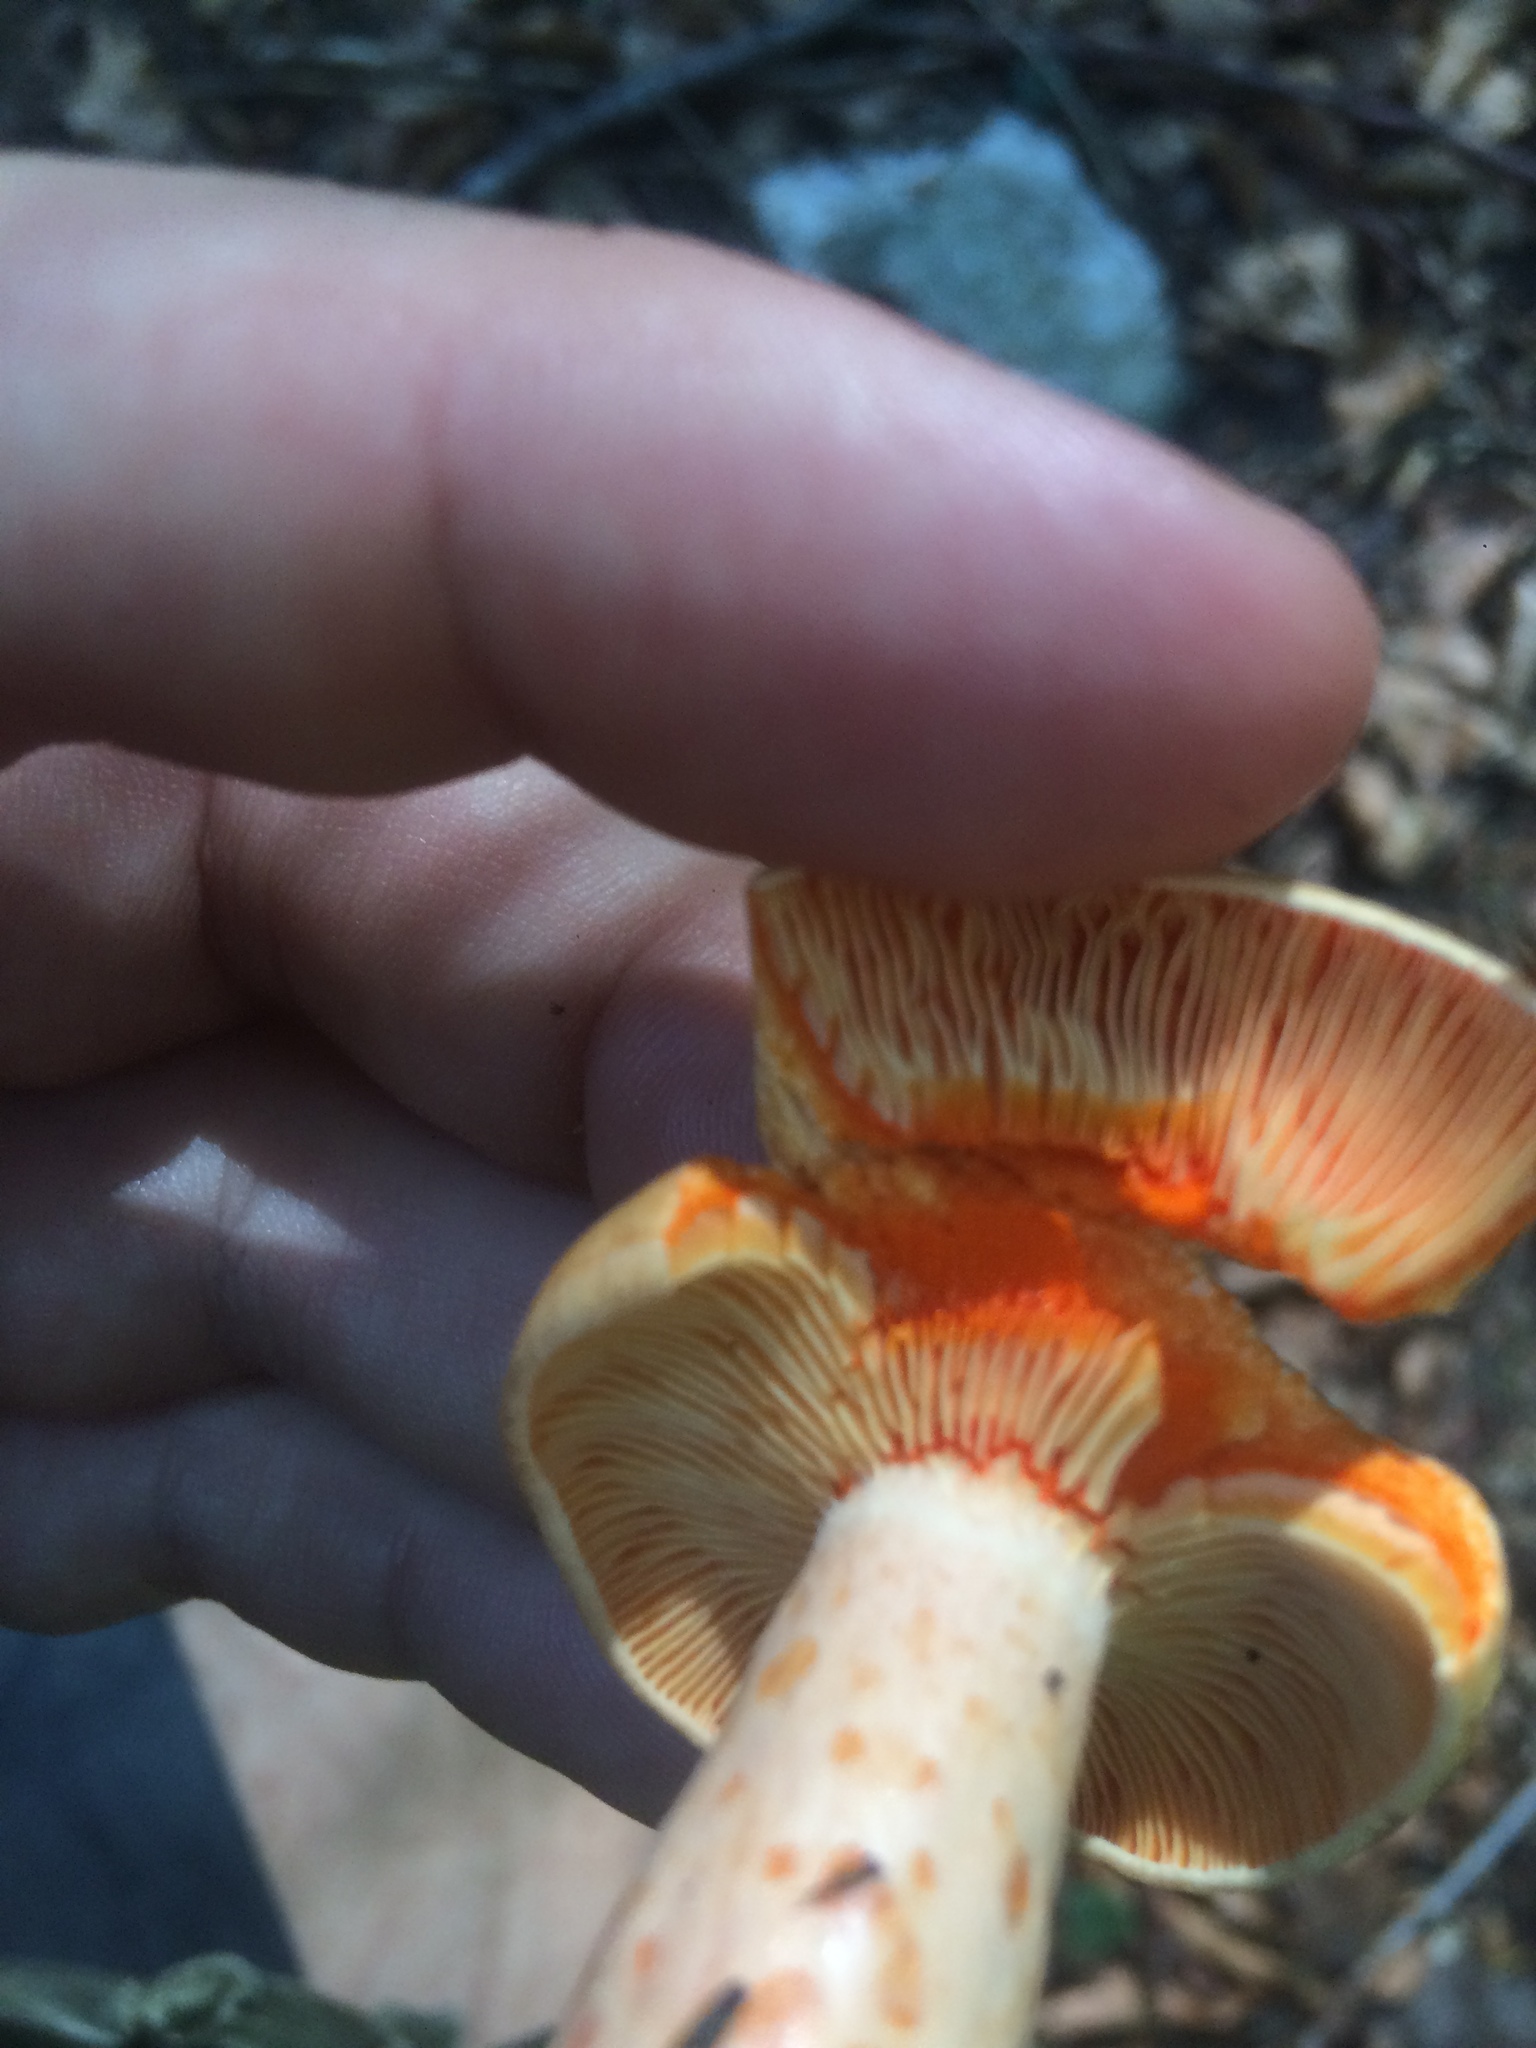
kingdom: Fungi
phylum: Basidiomycota
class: Agaricomycetes
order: Russulales
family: Russulaceae
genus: Lactarius
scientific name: Lactarius salmonicolor
